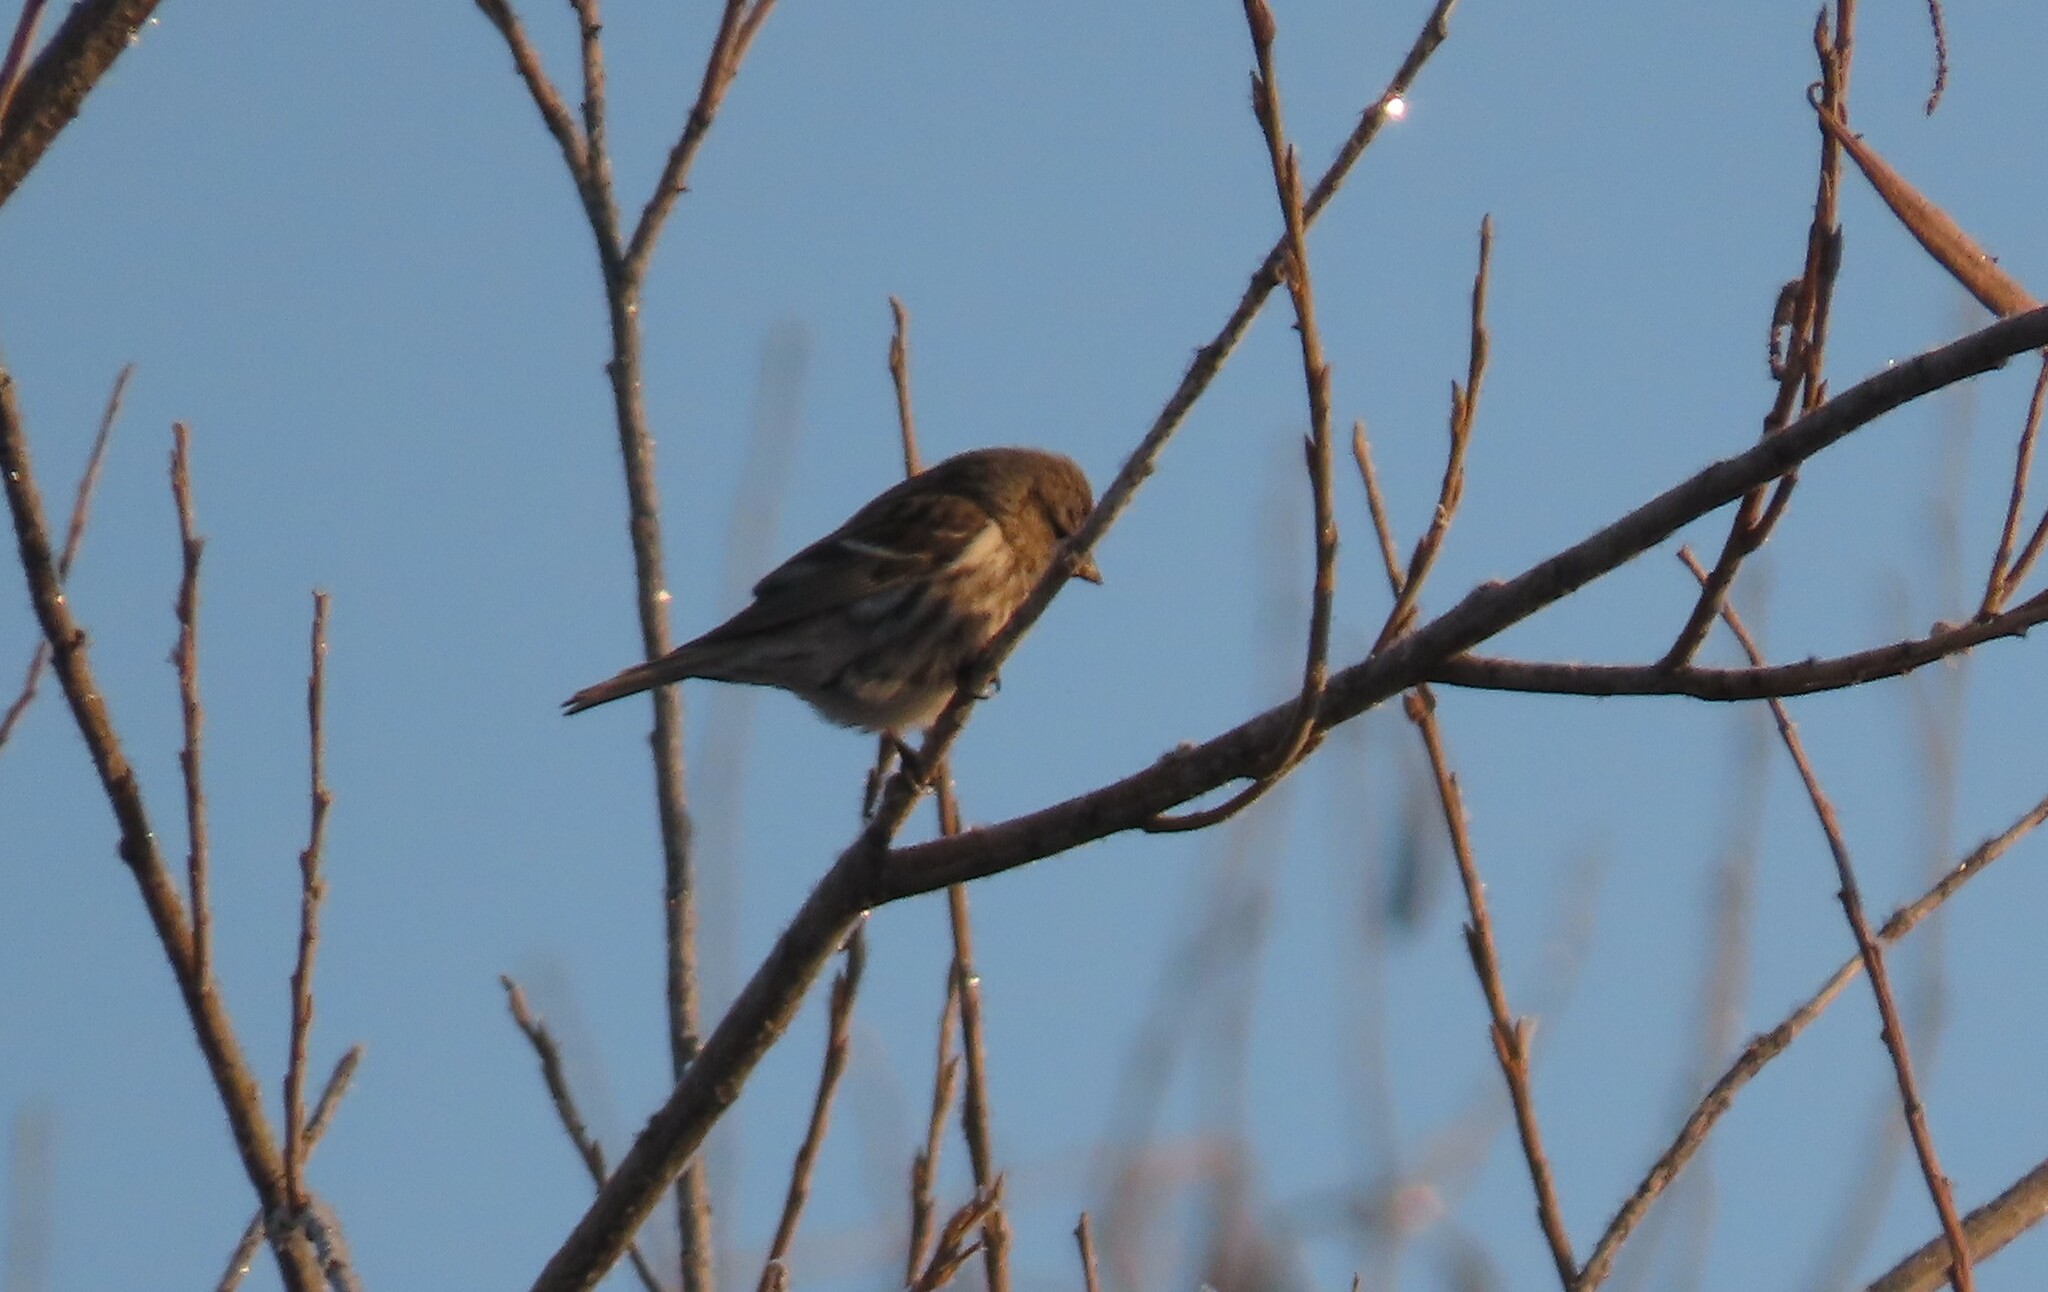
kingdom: Animalia
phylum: Chordata
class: Aves
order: Passeriformes
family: Fringillidae
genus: Acanthis
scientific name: Acanthis flammea
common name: Common redpoll
